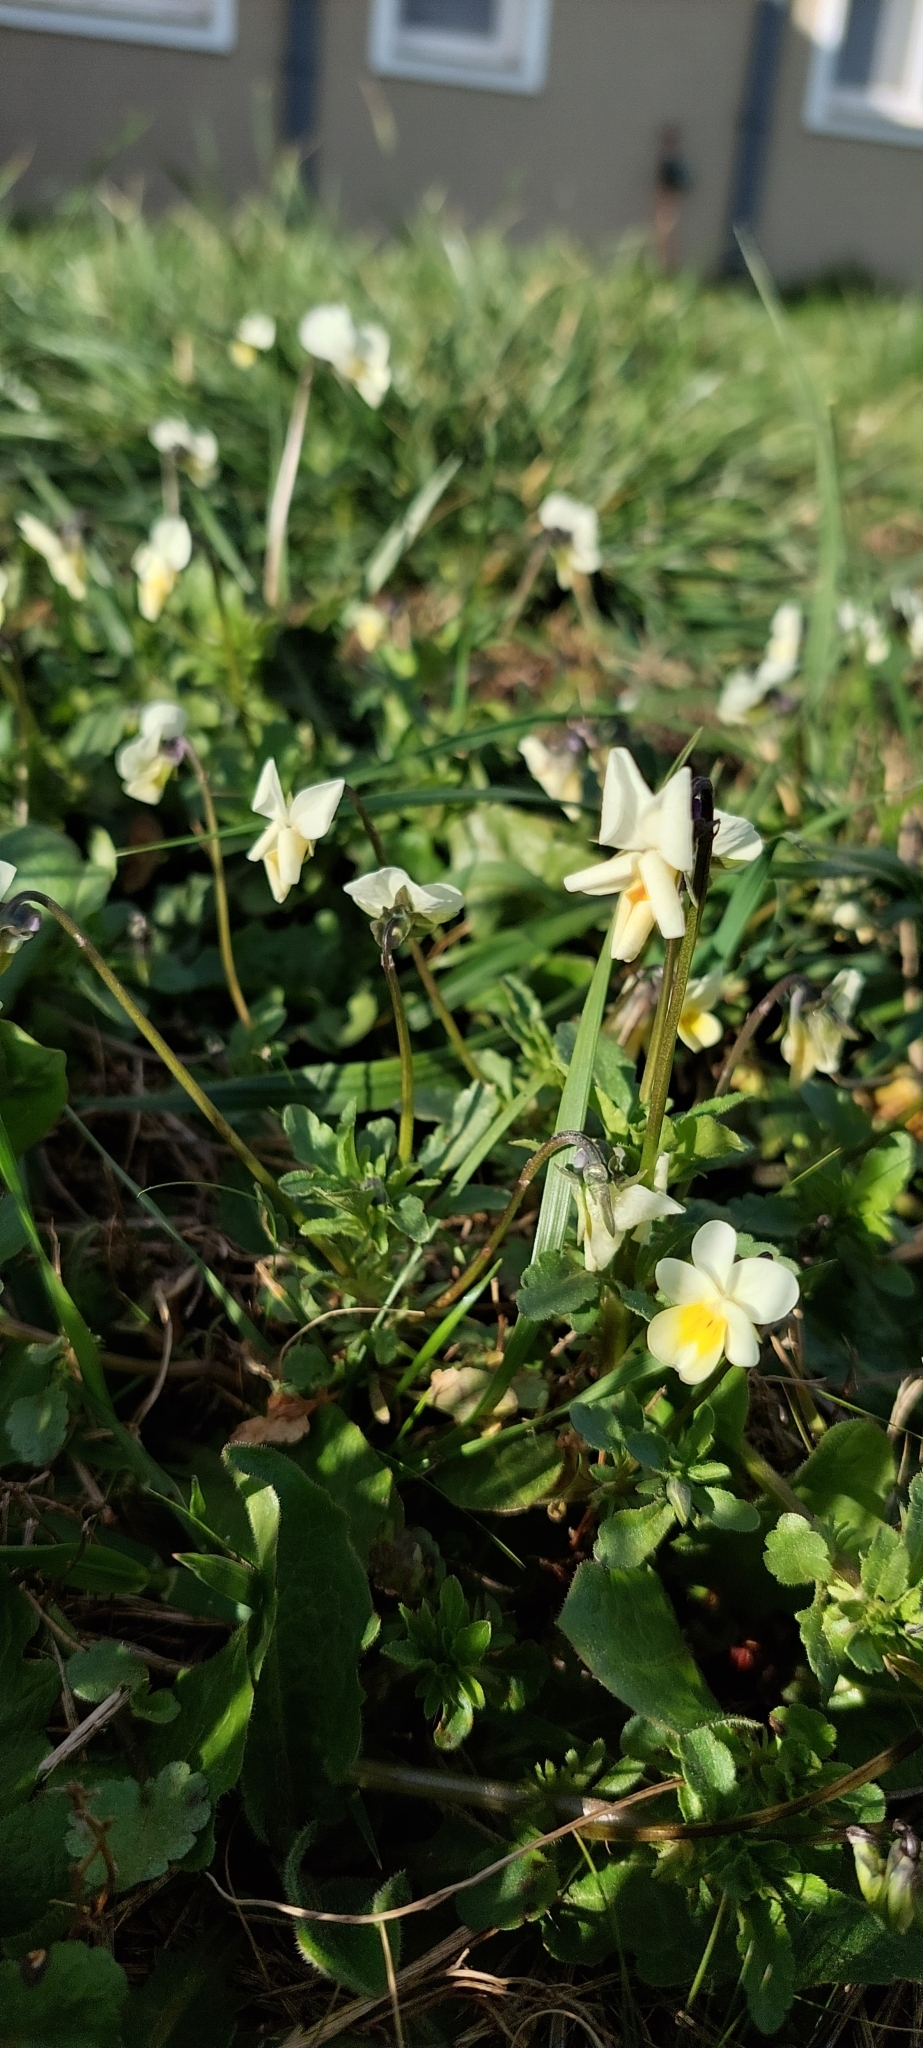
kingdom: Plantae
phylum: Tracheophyta
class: Magnoliopsida
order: Malpighiales
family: Violaceae
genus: Viola
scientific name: Viola arvensis
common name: Field pansy
